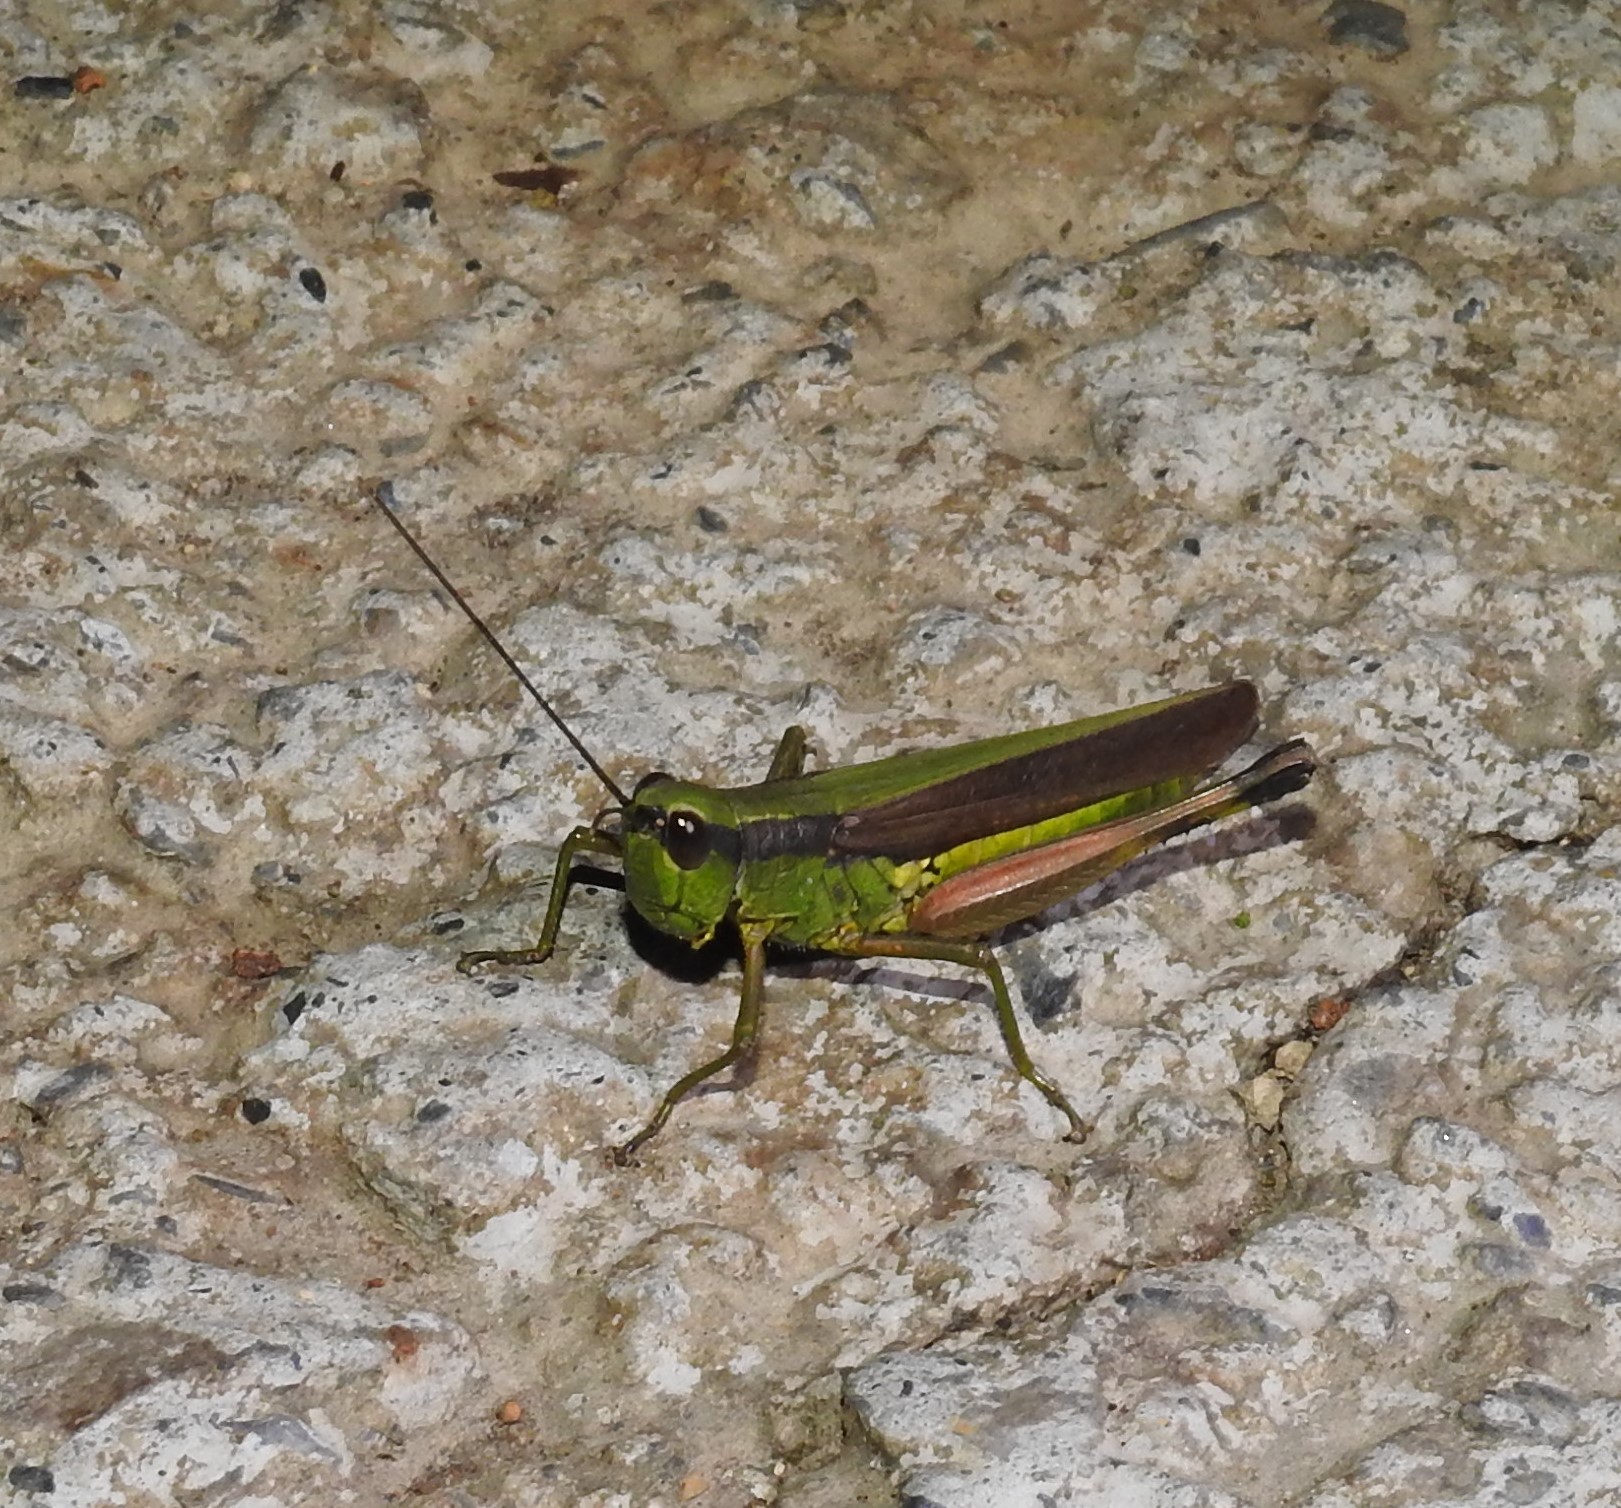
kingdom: Animalia
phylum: Arthropoda
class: Insecta
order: Orthoptera
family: Acrididae
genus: Ceracris
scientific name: Ceracris nigricornis
